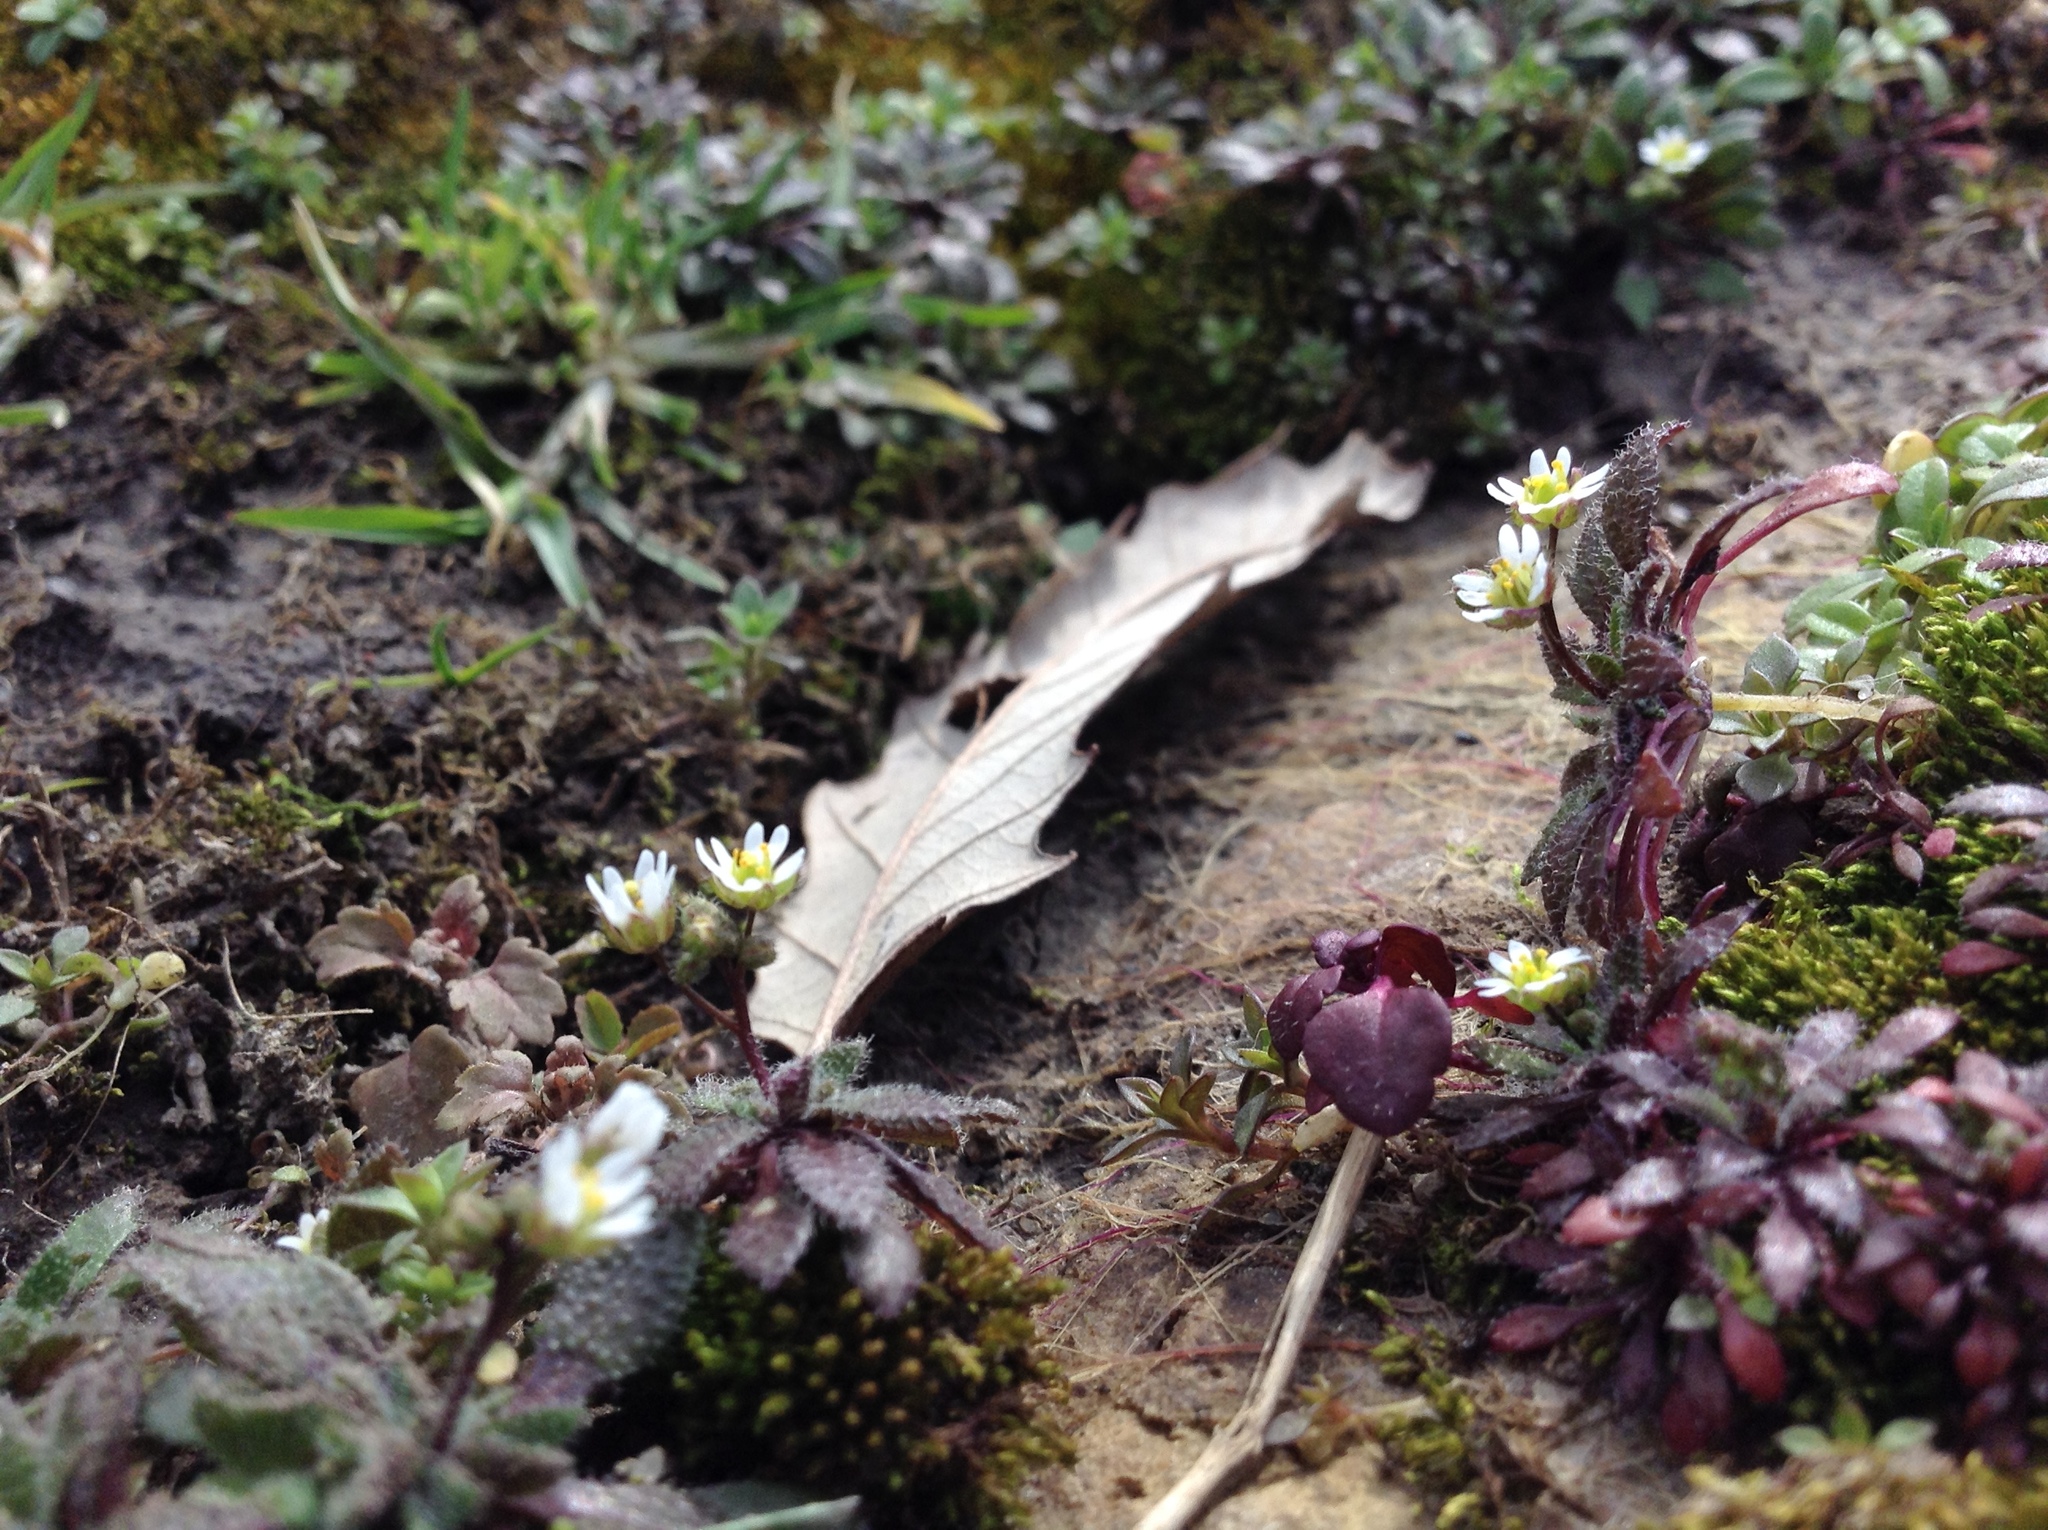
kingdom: Plantae
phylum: Tracheophyta
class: Magnoliopsida
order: Brassicales
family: Brassicaceae
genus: Draba
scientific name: Draba verna
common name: Spring draba
